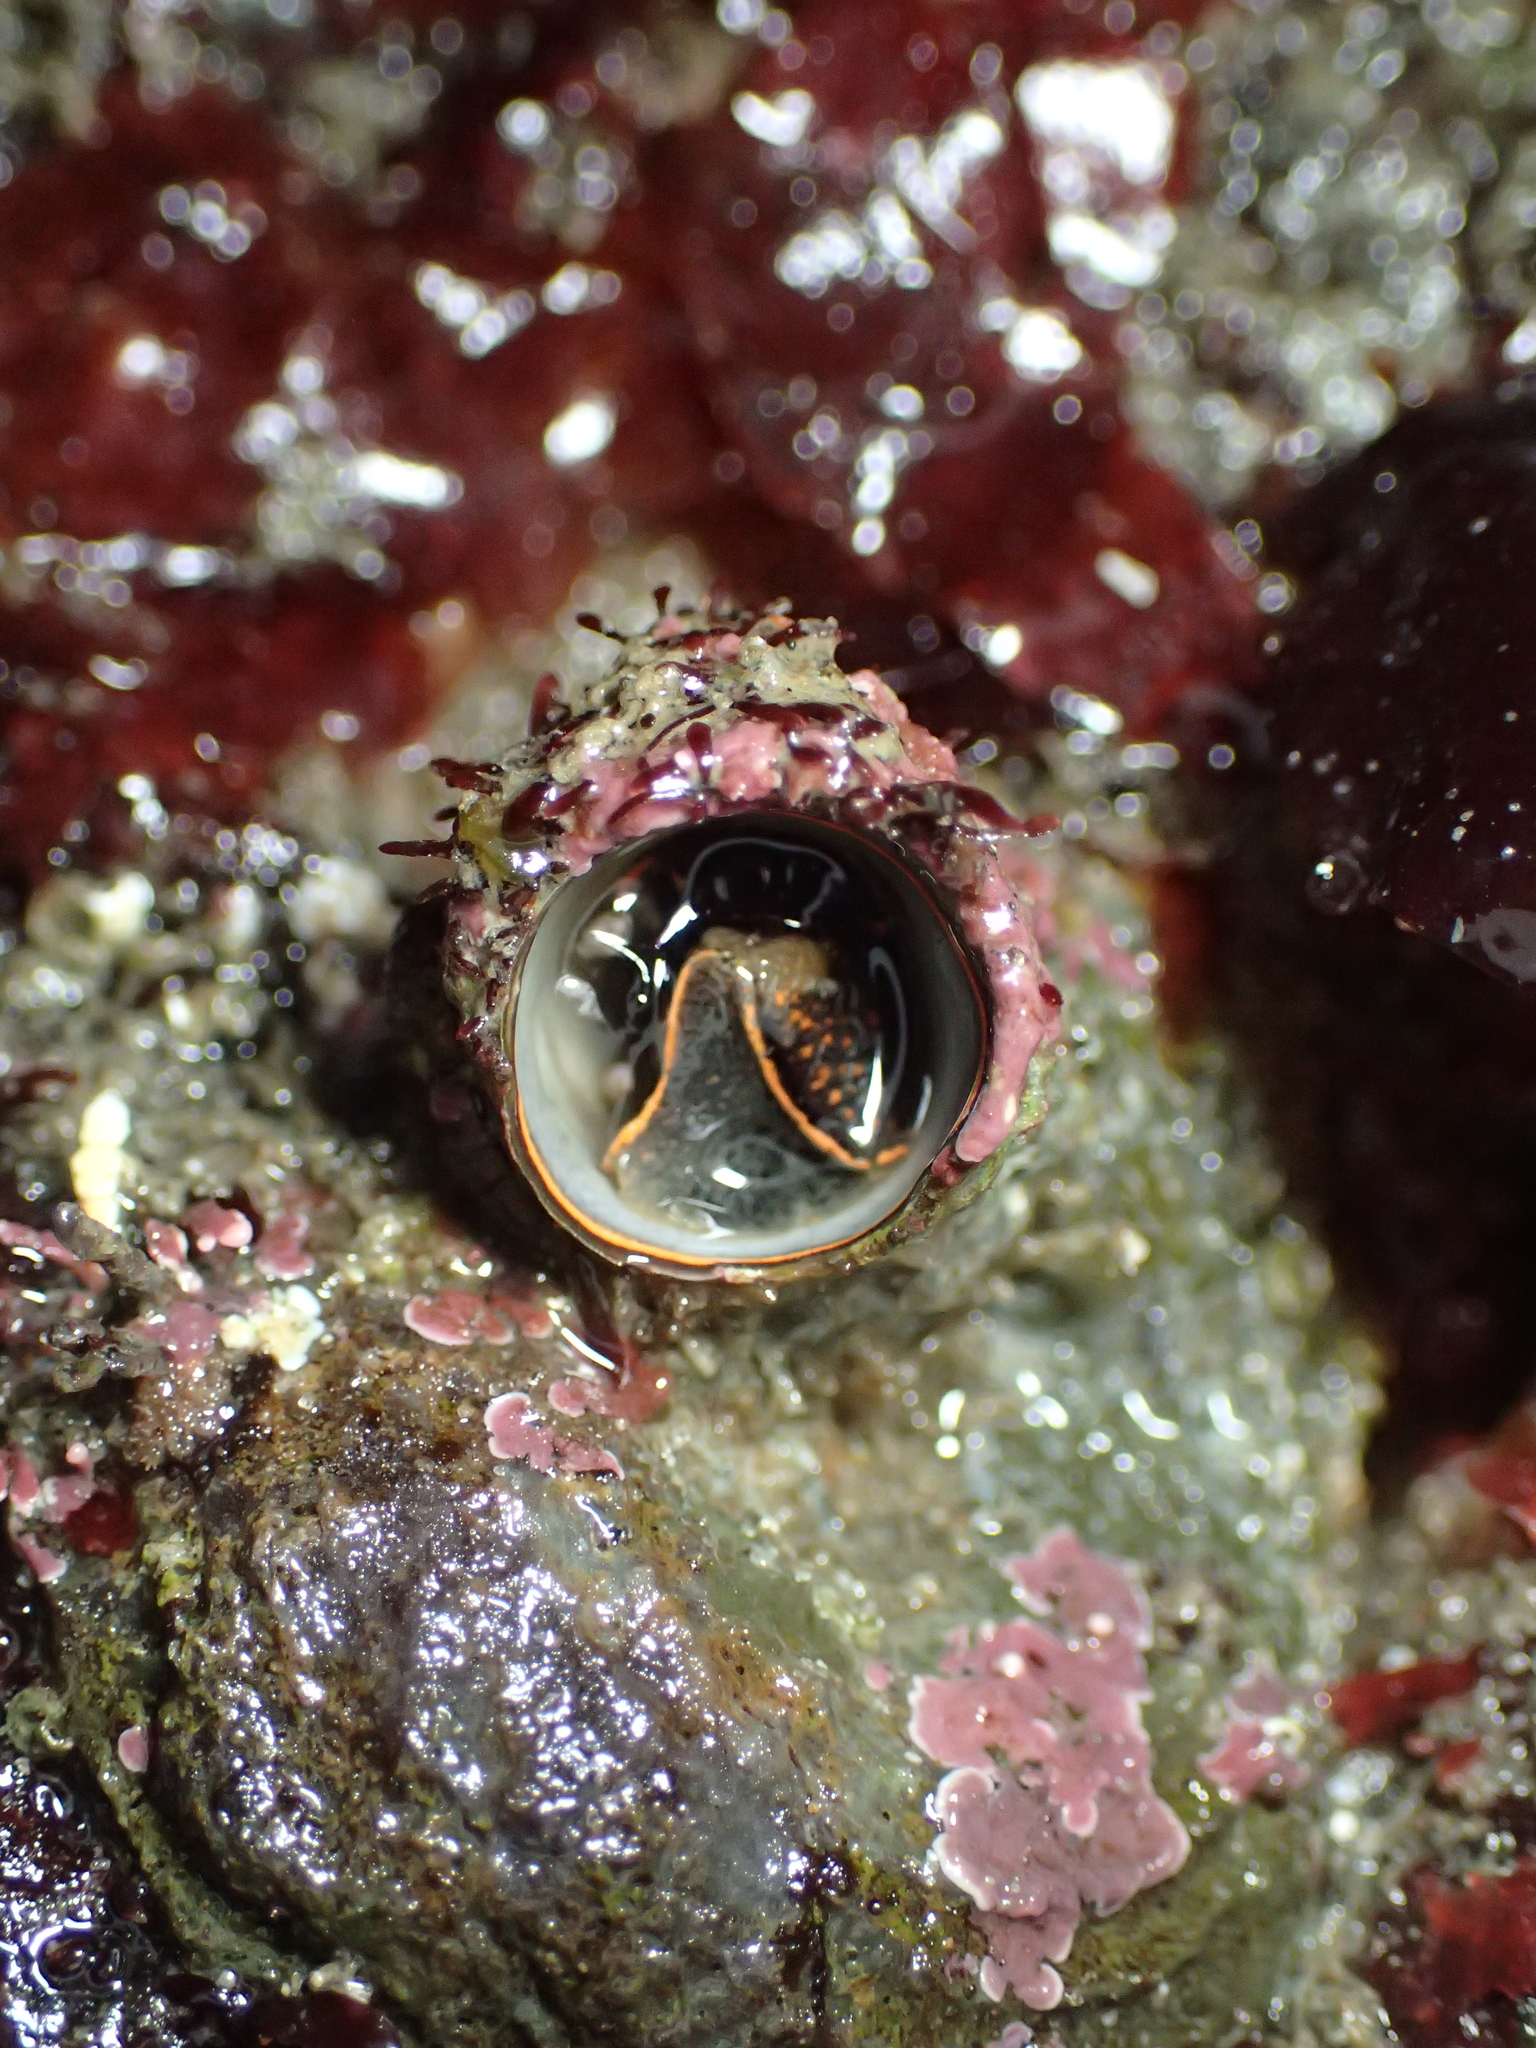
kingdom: Animalia
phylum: Mollusca
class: Gastropoda
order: Littorinimorpha
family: Vermetidae
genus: Thylacodes
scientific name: Thylacodes squamigerus
